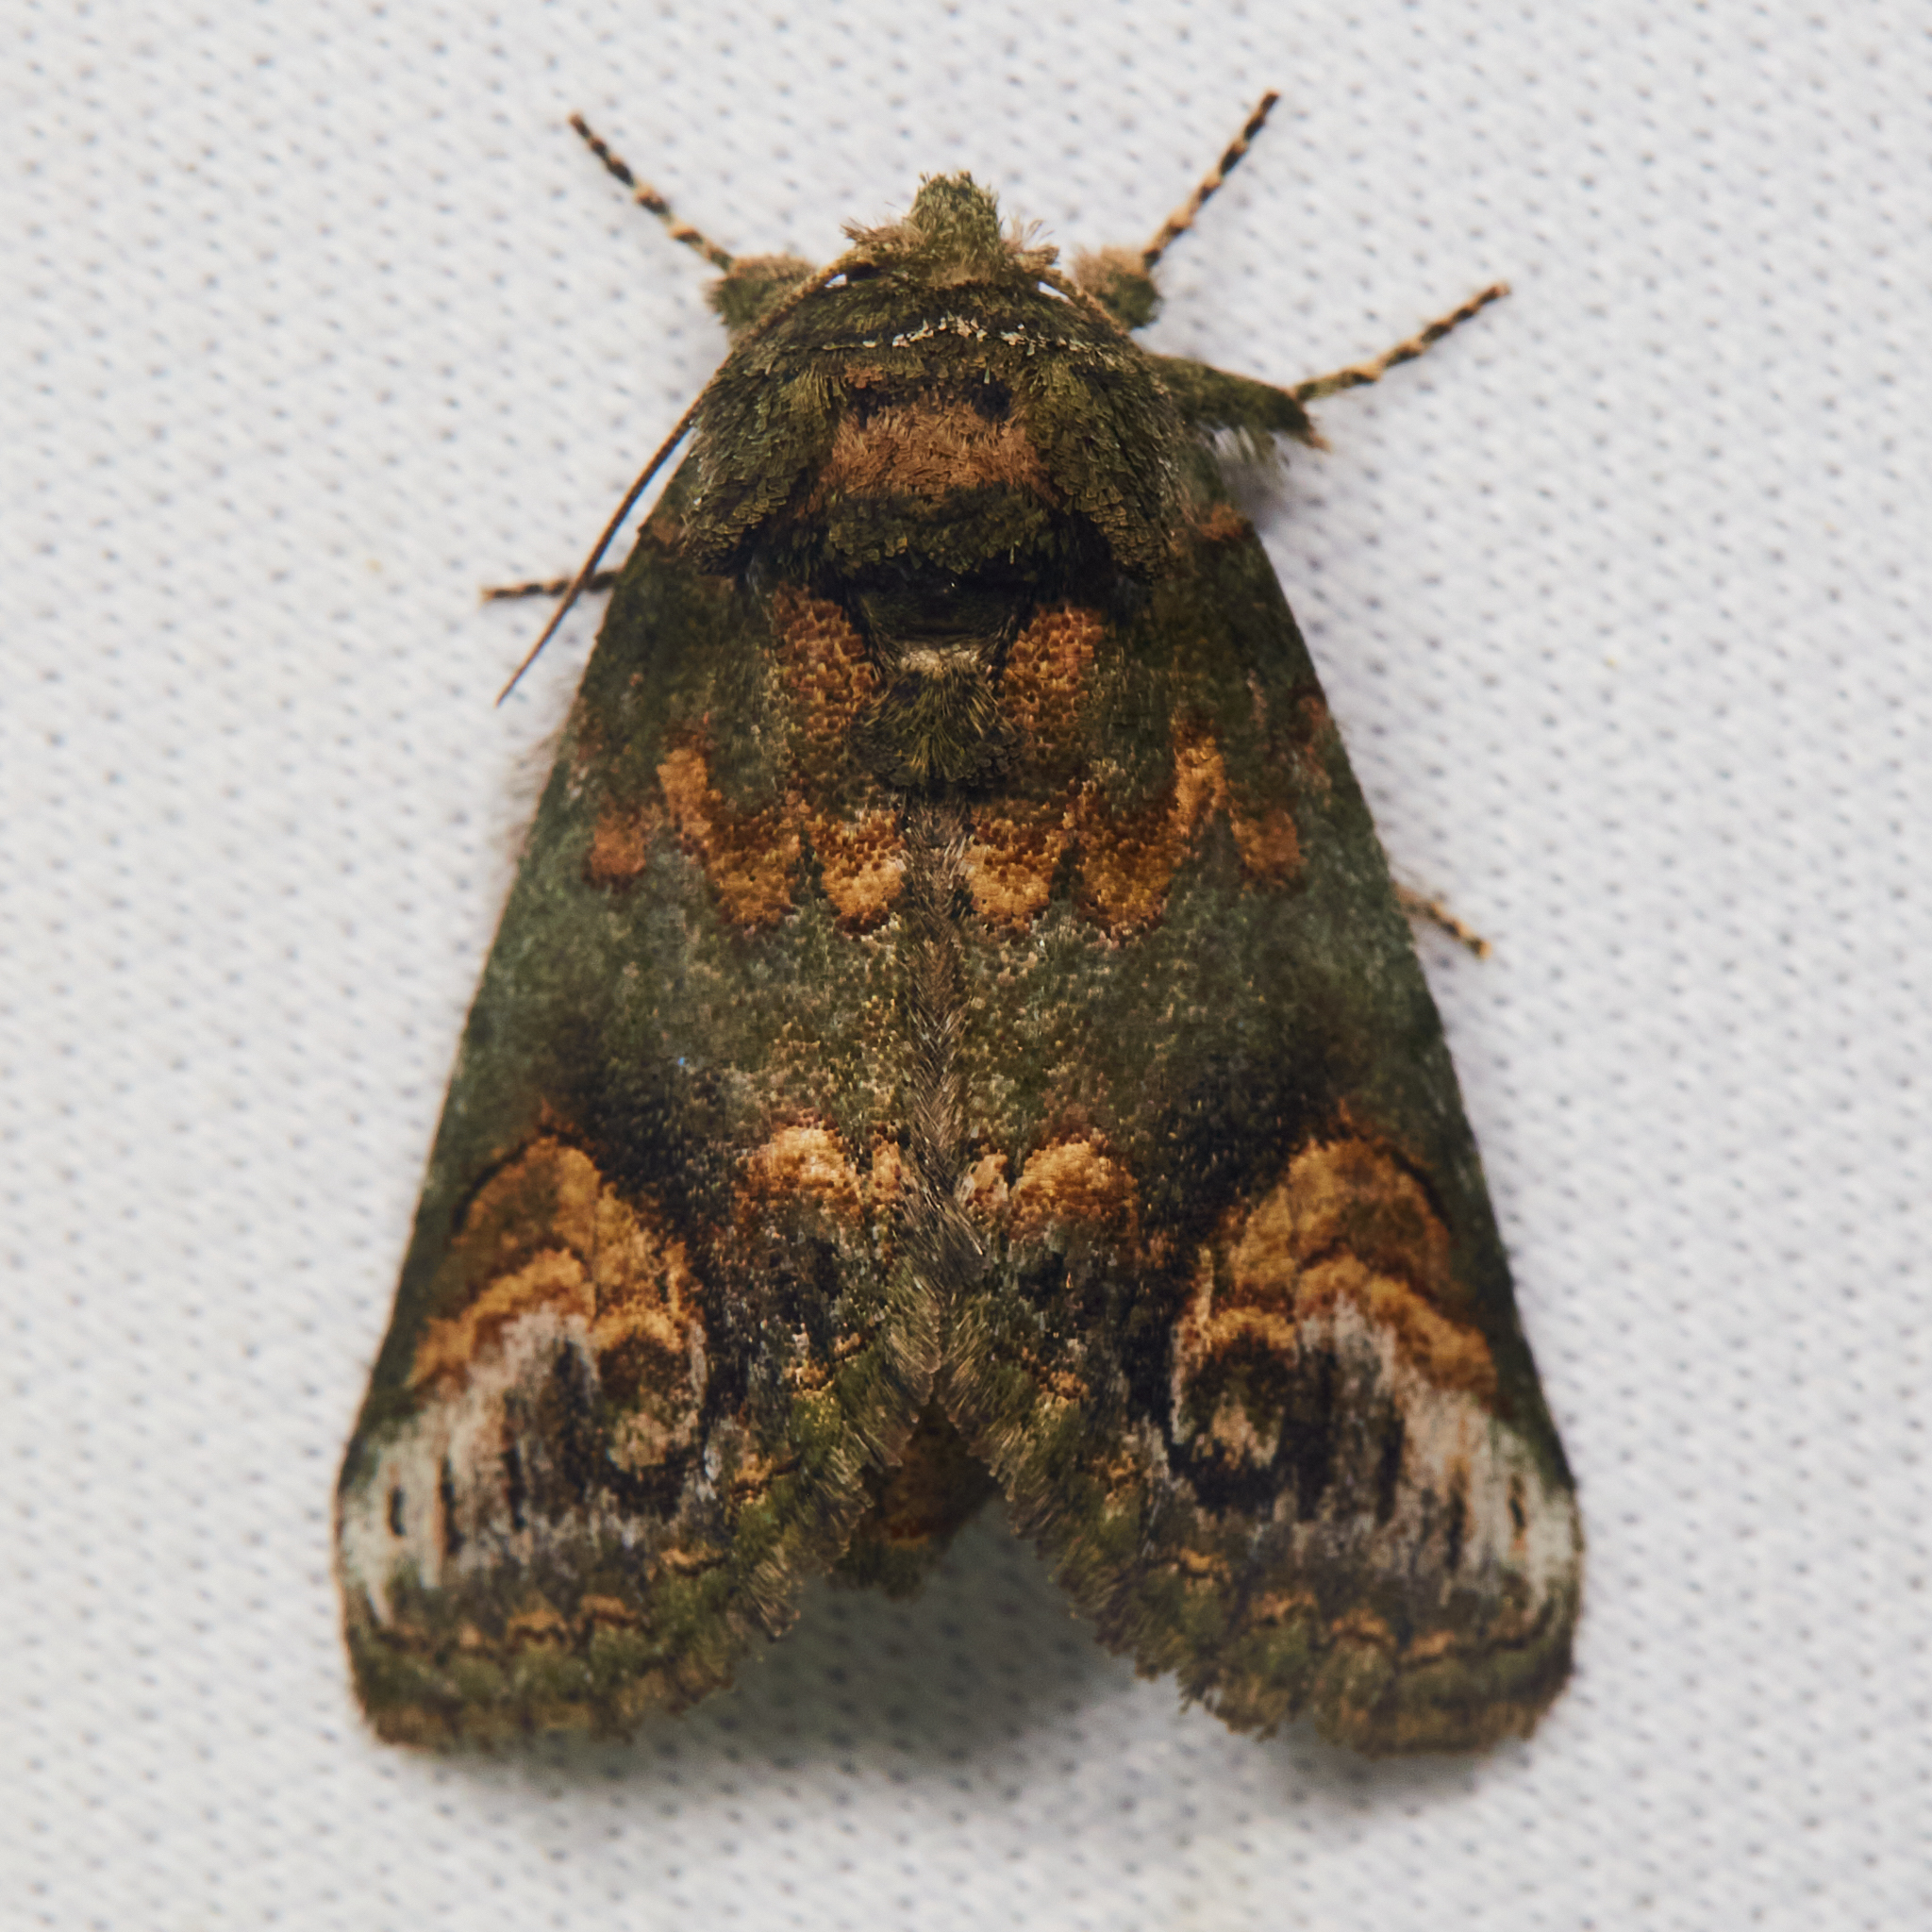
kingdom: Animalia
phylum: Arthropoda
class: Insecta
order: Lepidoptera
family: Notodontidae
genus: Rifargia
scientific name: Rifargia
